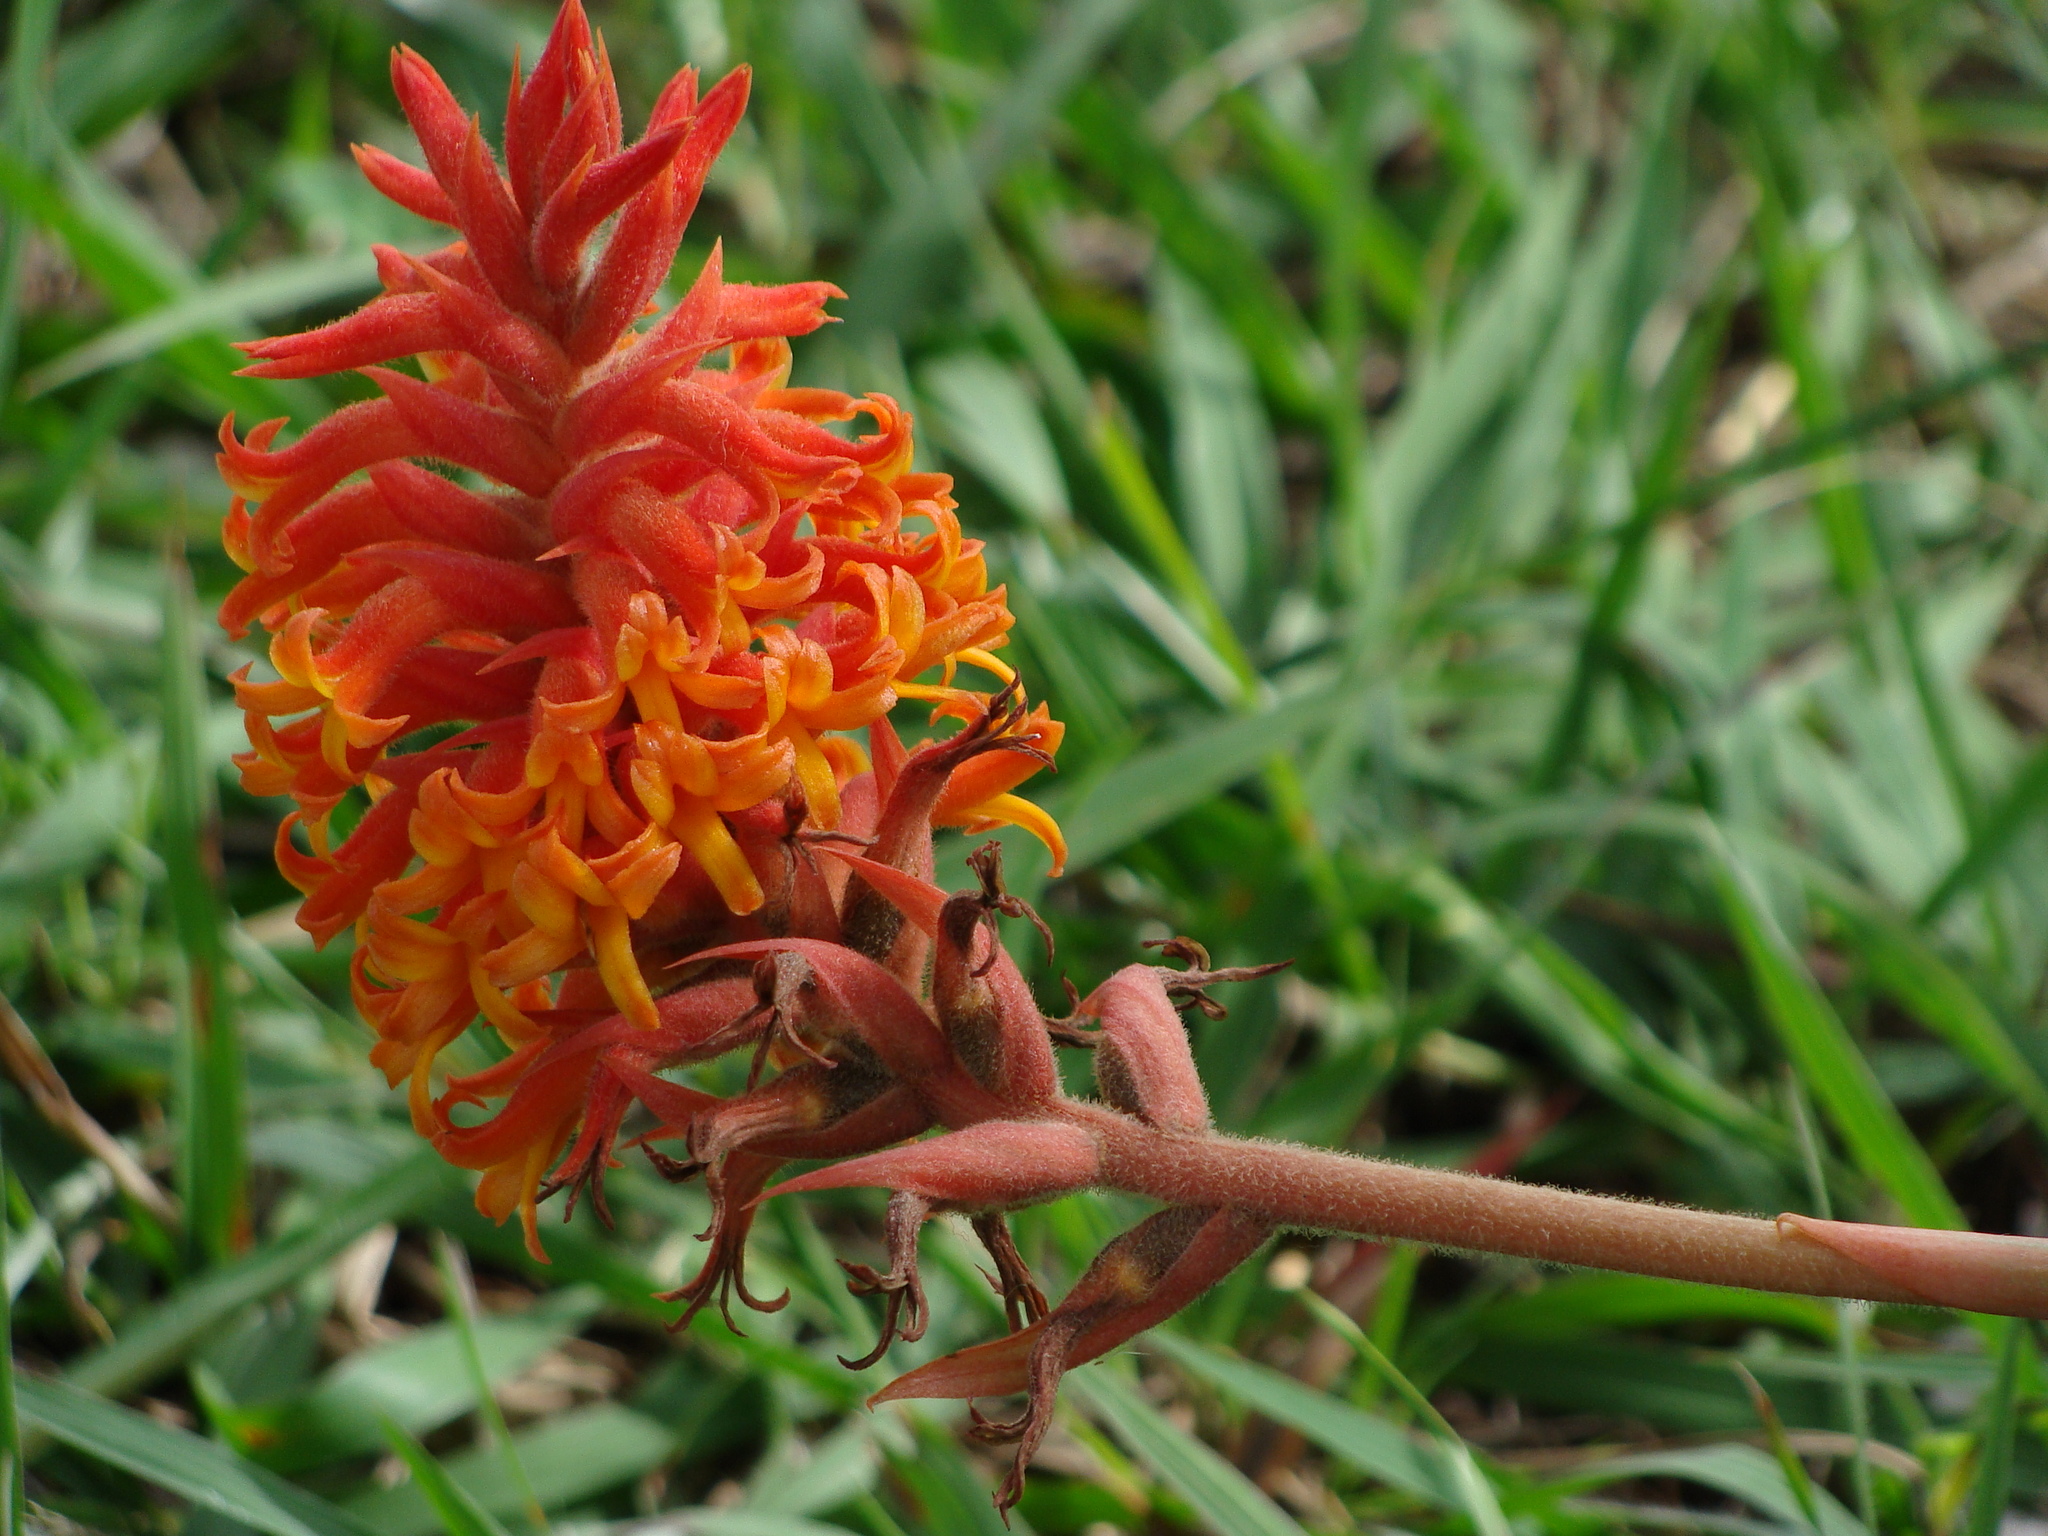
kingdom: Plantae
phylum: Tracheophyta
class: Liliopsida
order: Asparagales
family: Orchidaceae
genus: Dichromanthus
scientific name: Dichromanthus cinnabarinus
